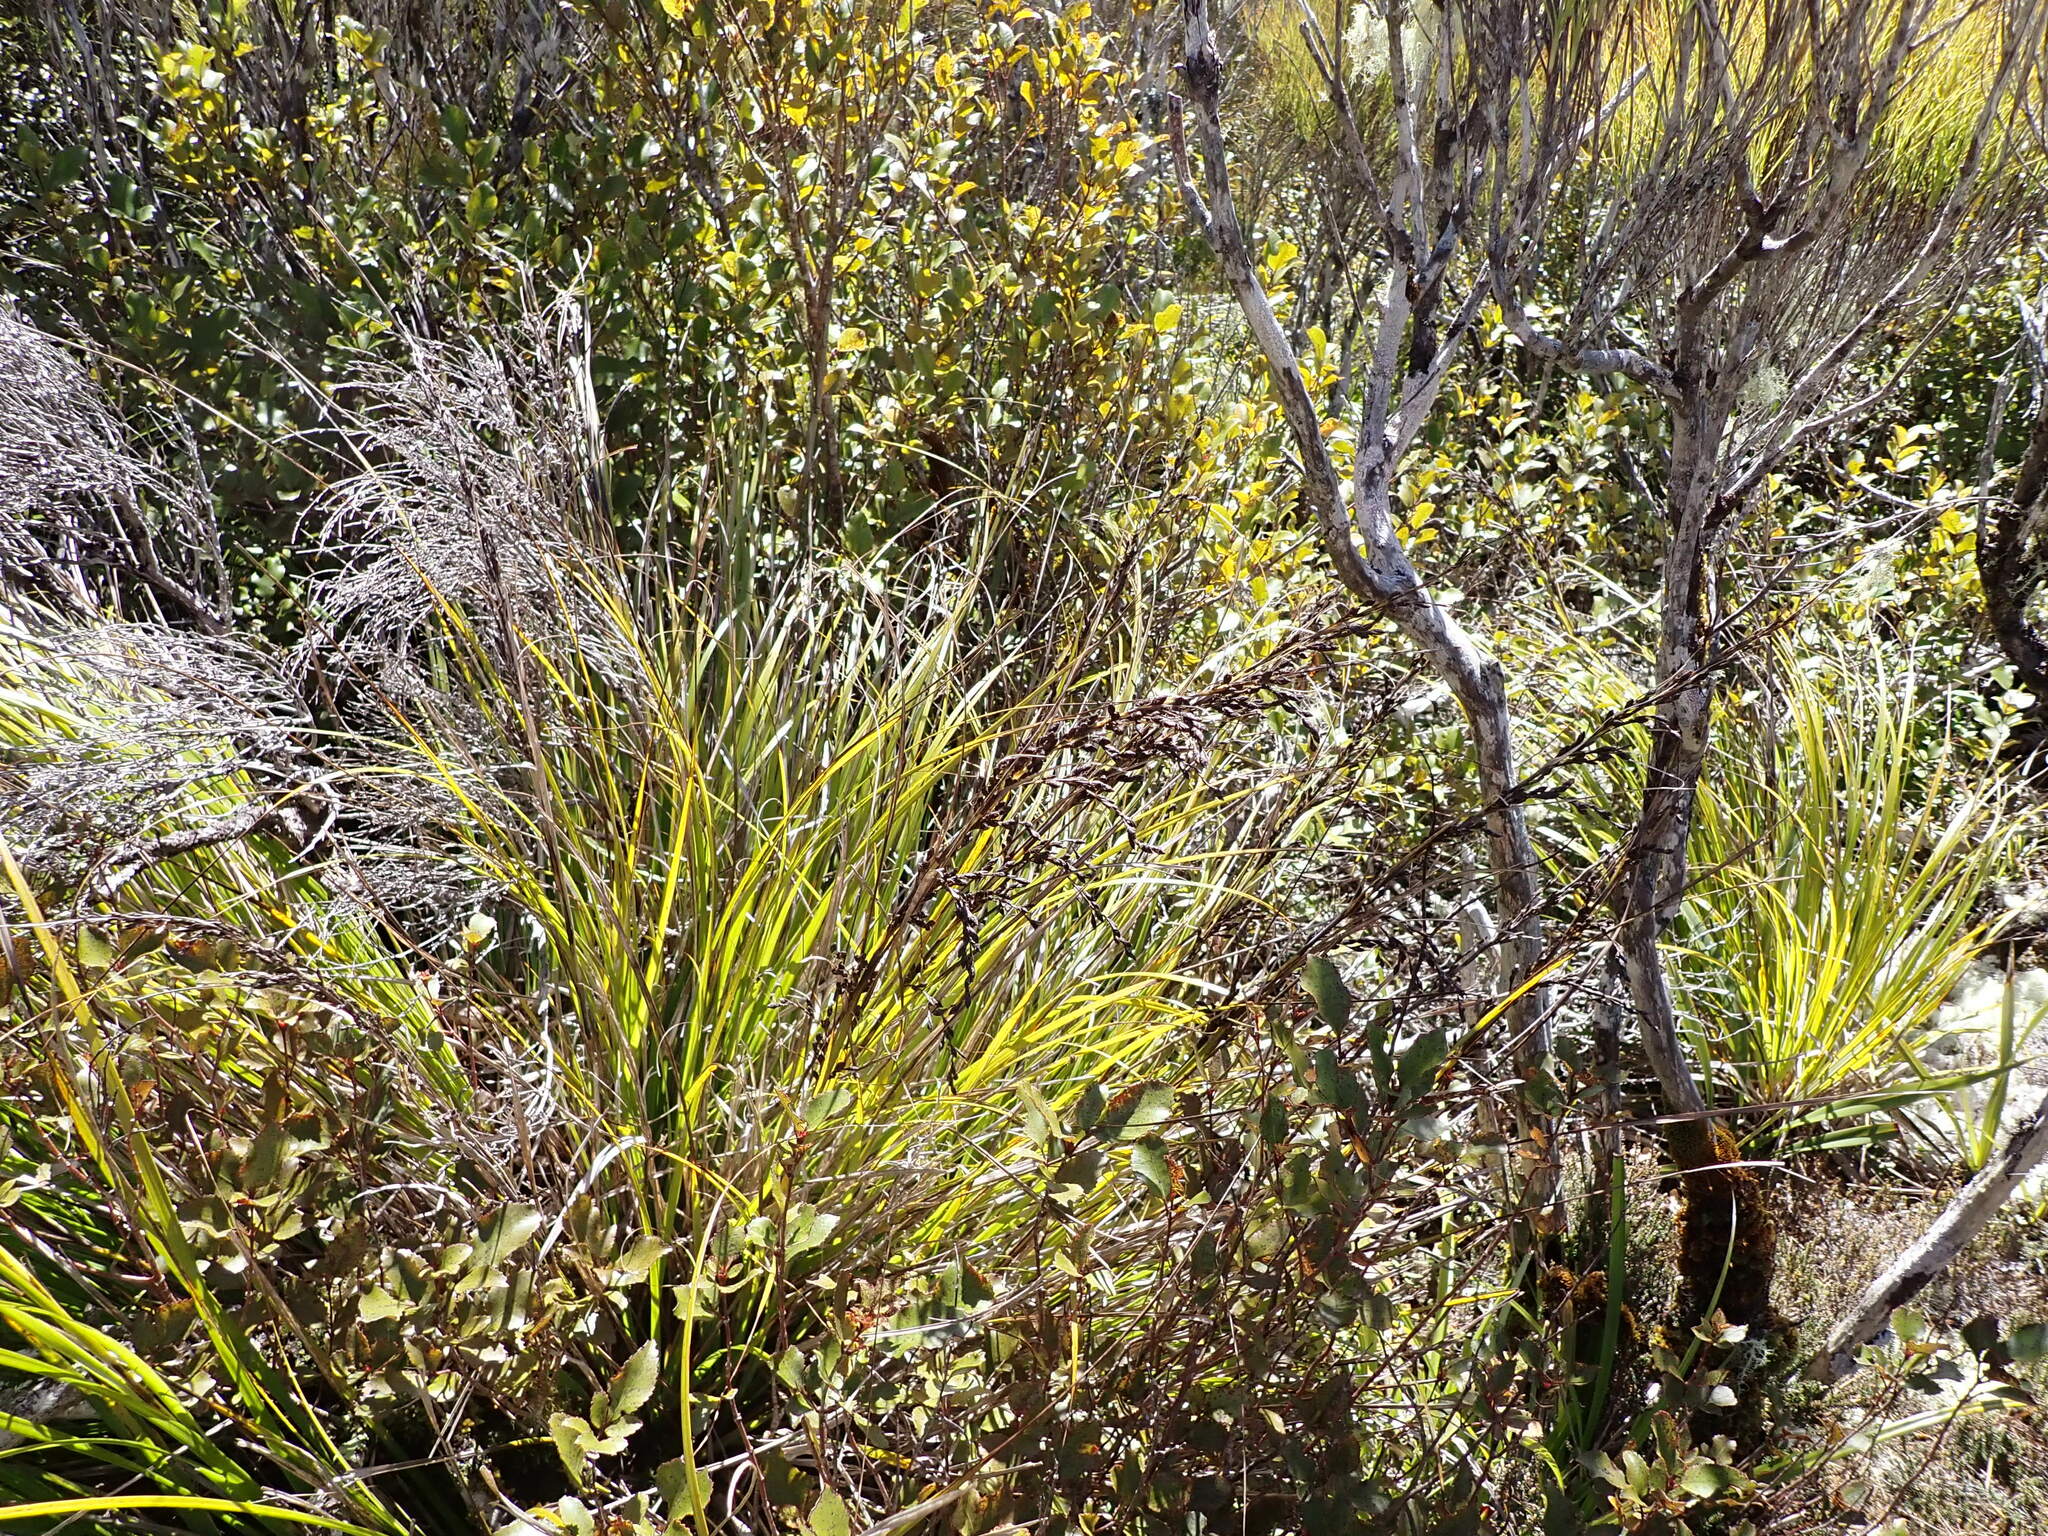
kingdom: Plantae
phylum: Tracheophyta
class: Liliopsida
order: Poales
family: Cyperaceae
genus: Gahnia
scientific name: Gahnia pauciflora
